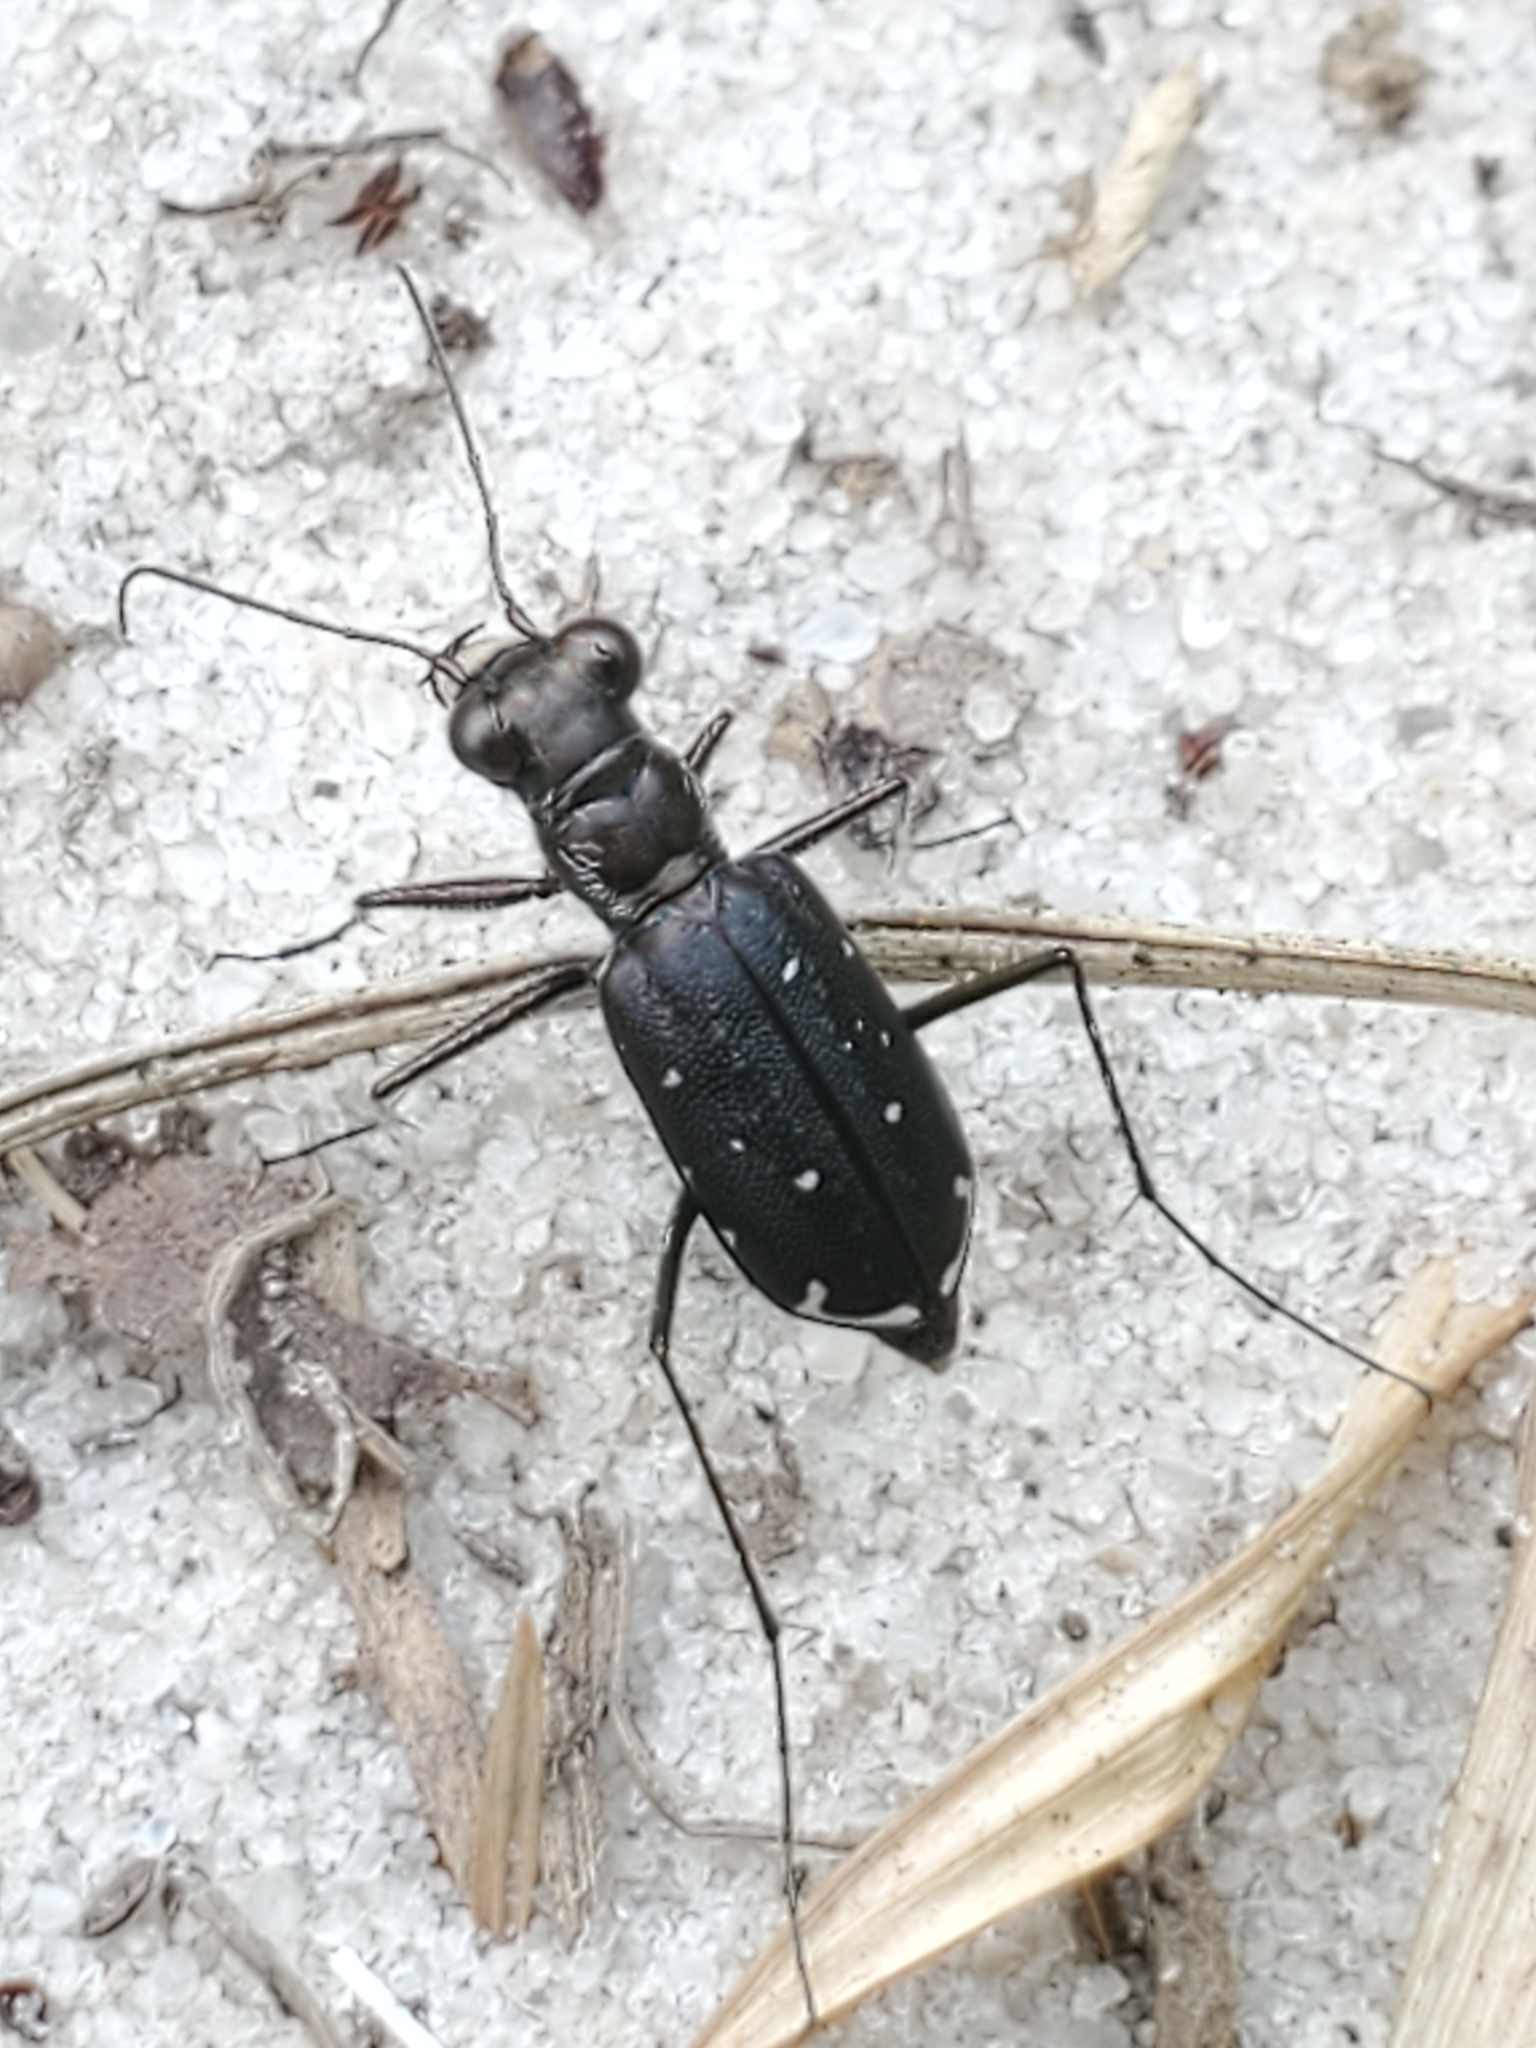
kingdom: Animalia
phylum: Arthropoda
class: Insecta
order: Coleoptera
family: Carabidae
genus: Cicindela
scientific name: Cicindela punctulata
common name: Punctured tiger beetle
